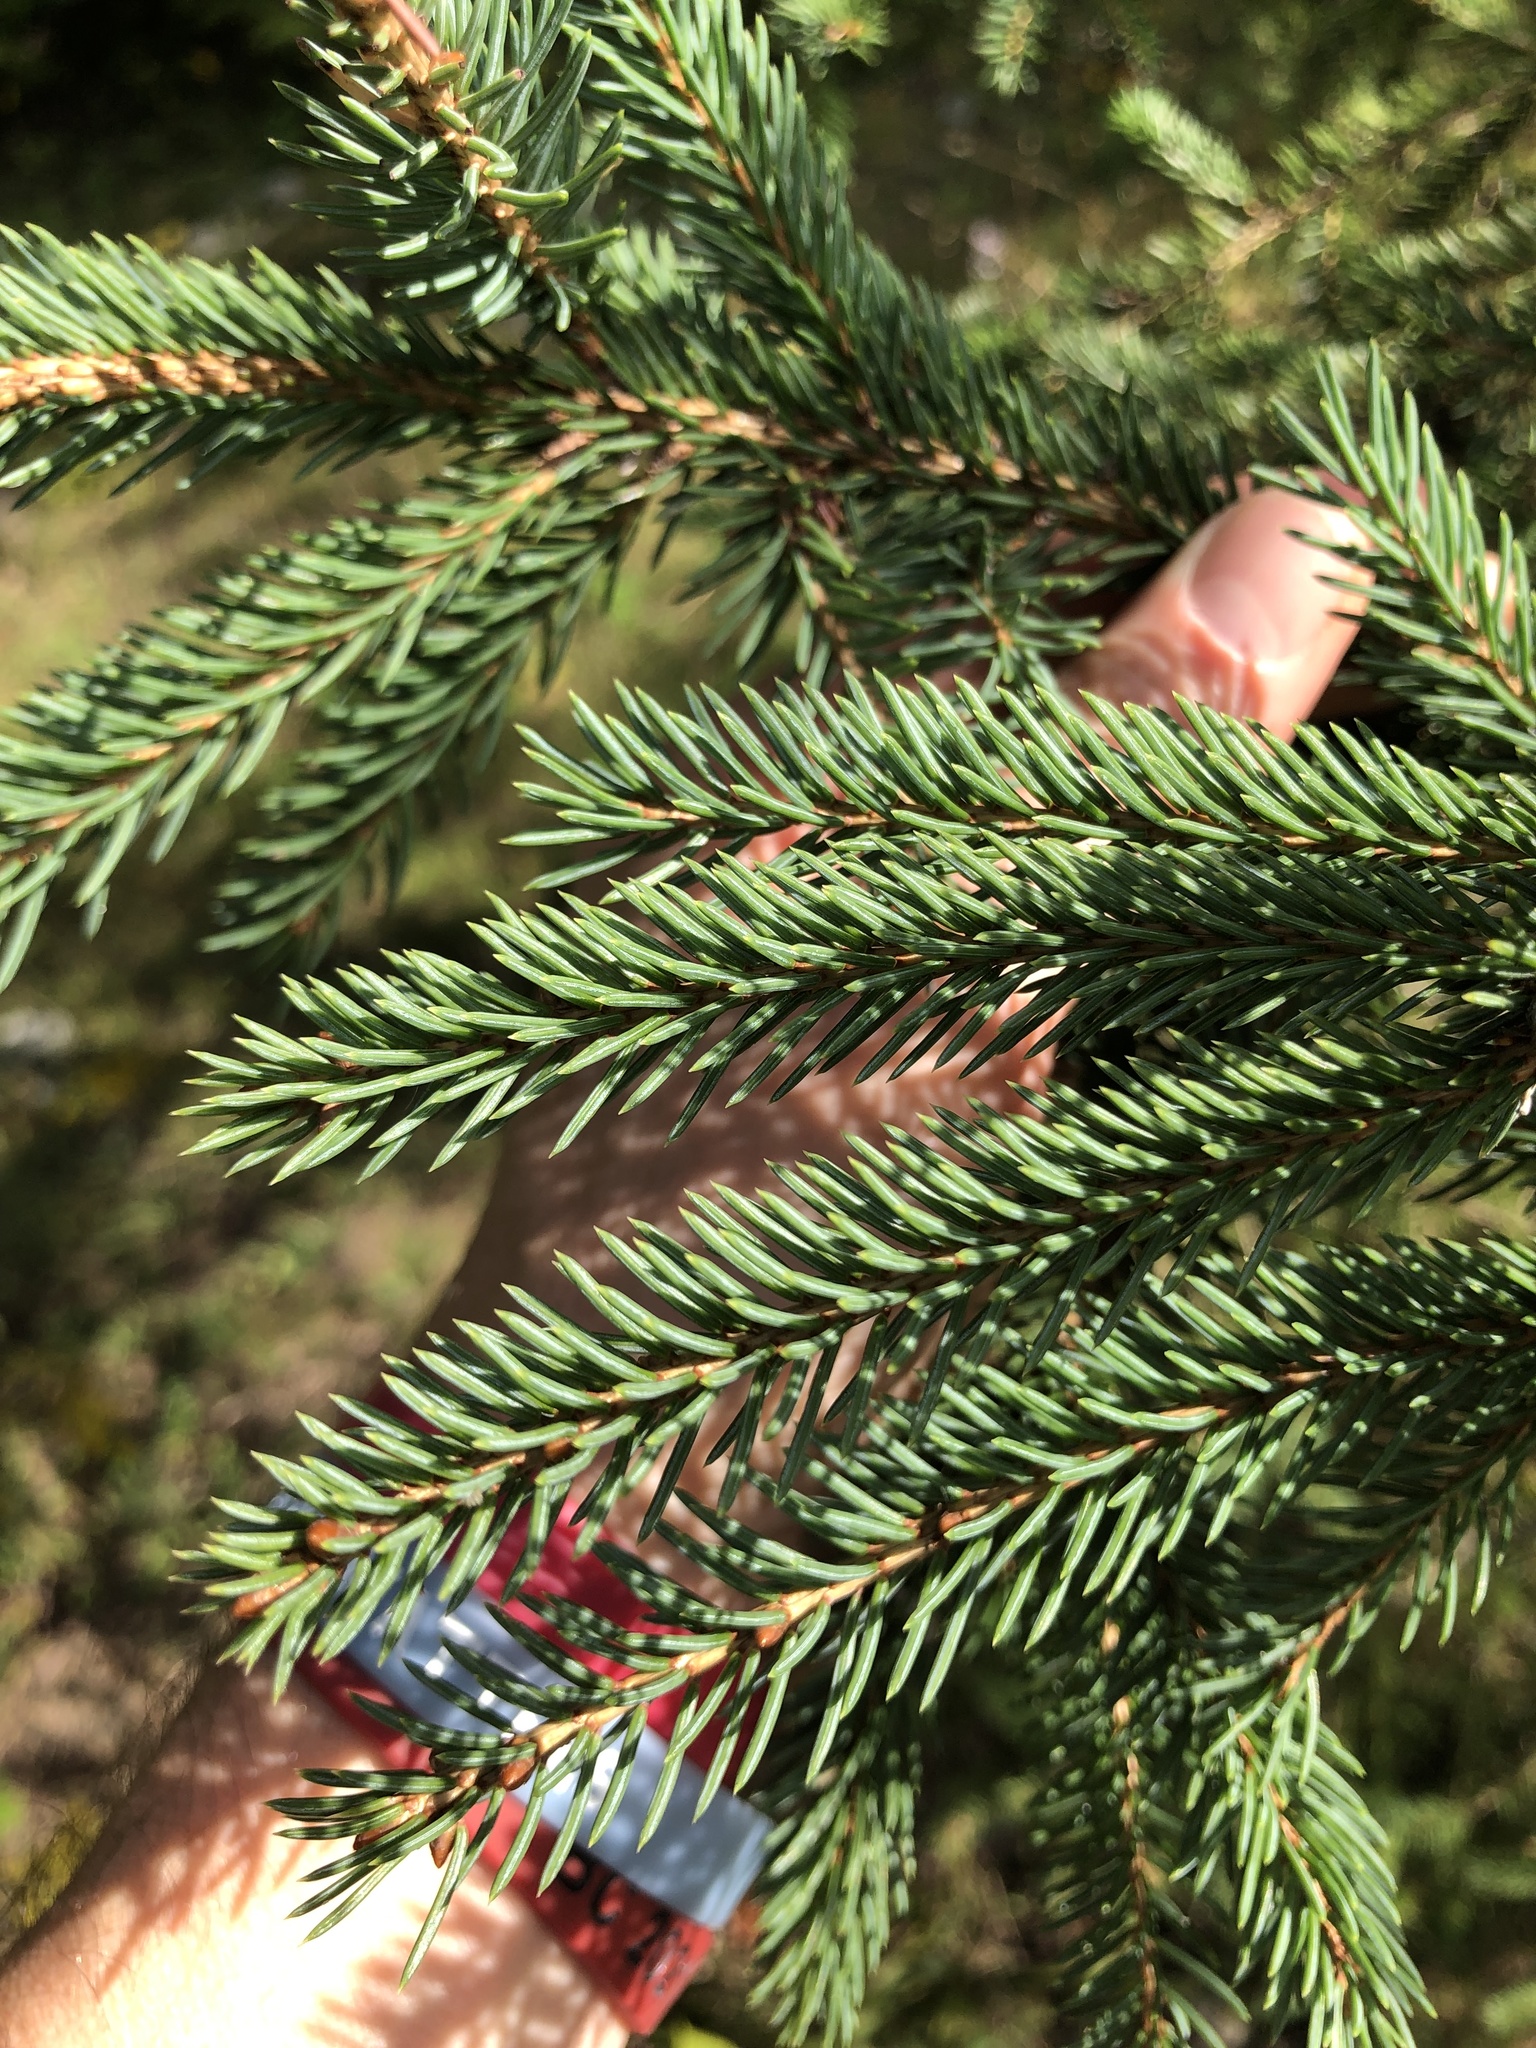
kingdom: Plantae
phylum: Tracheophyta
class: Pinopsida
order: Pinales
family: Pinaceae
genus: Picea
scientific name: Picea glauca
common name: White spruce
